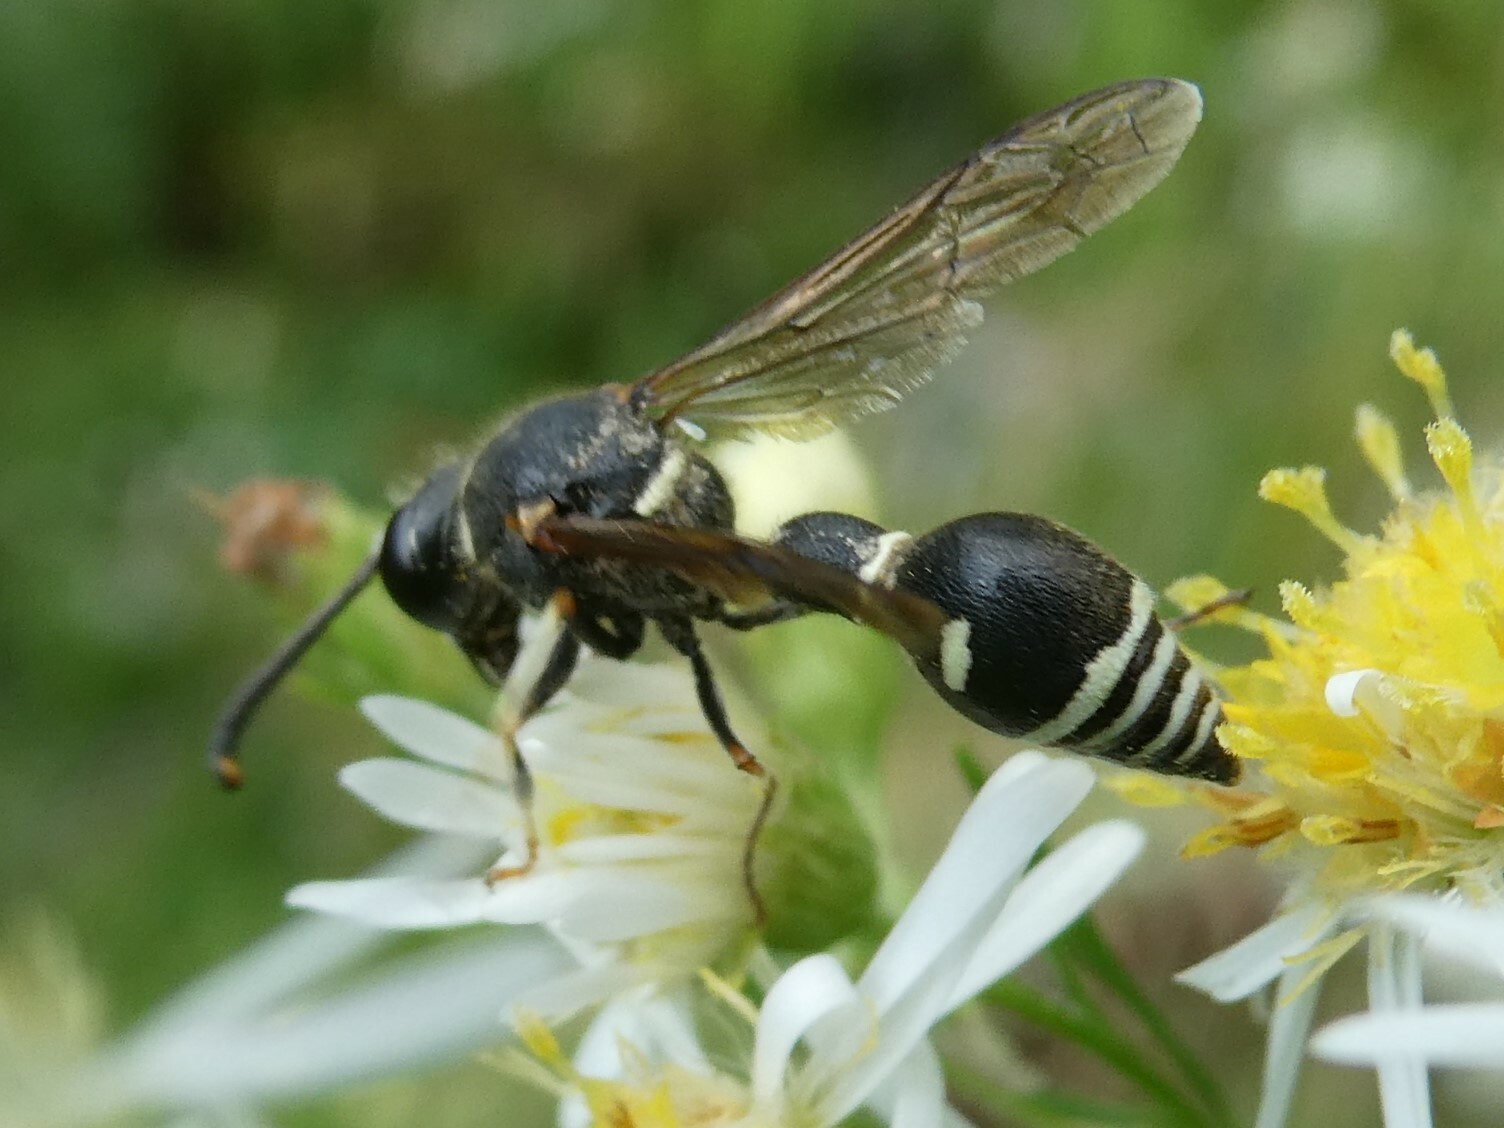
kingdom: Animalia
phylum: Arthropoda
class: Insecta
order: Hymenoptera
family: Vespidae
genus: Eumenes
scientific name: Eumenes crucifera
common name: Cross potter wasp
